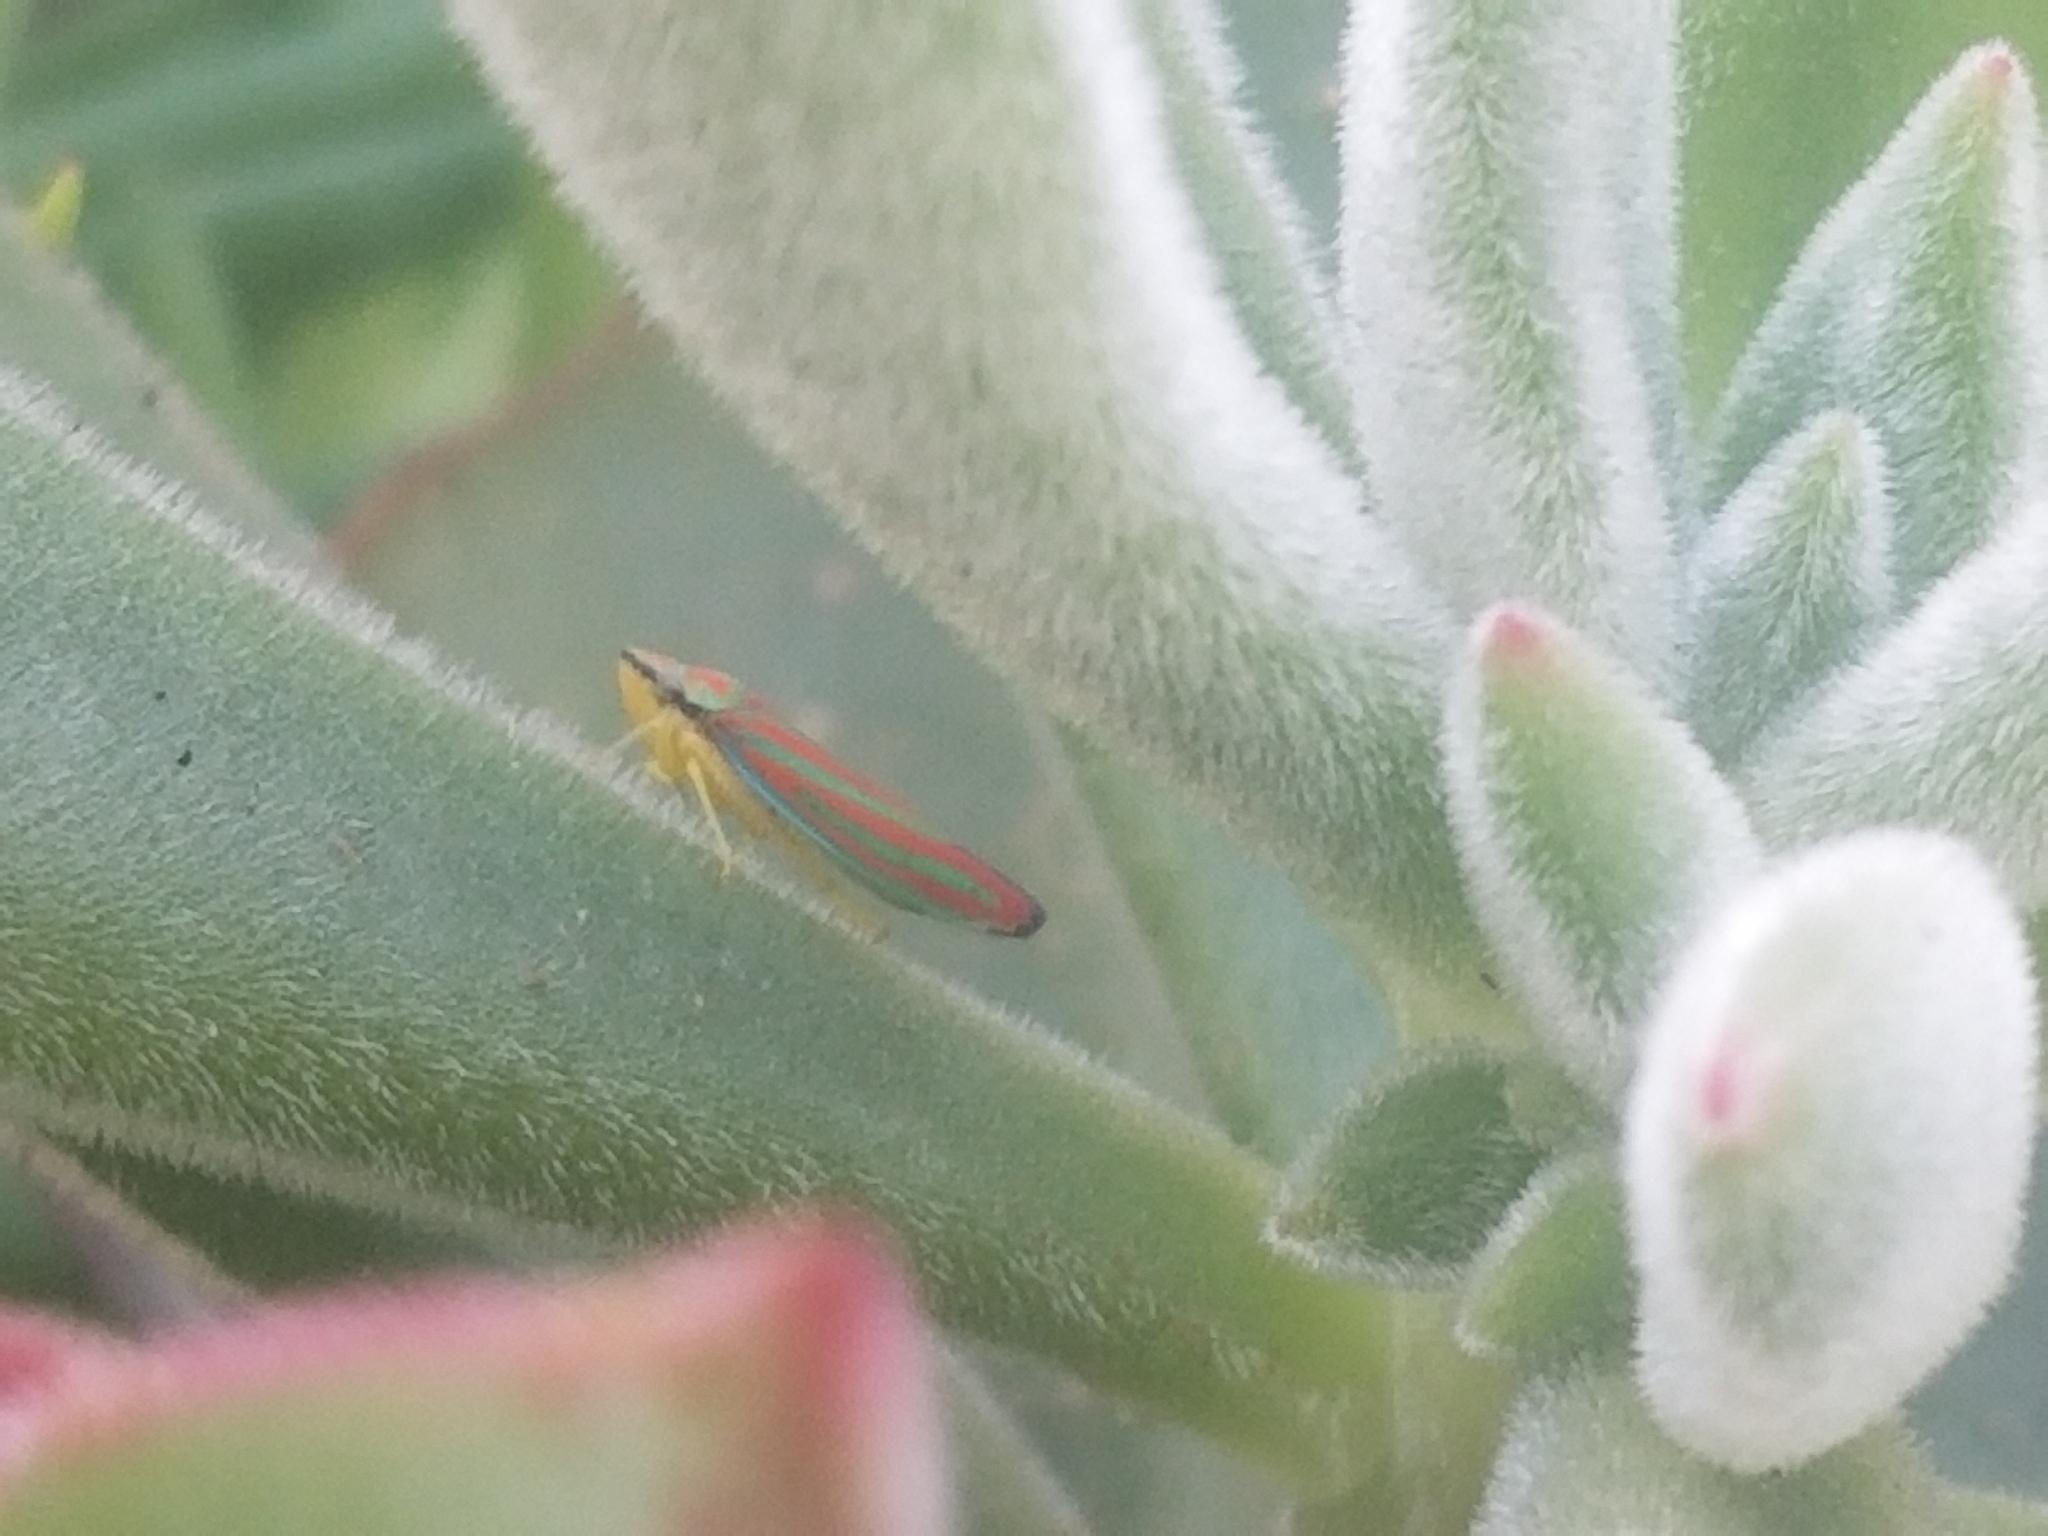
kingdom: Animalia
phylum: Arthropoda
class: Insecta
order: Hemiptera
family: Cicadellidae
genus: Graphocephala
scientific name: Graphocephala coccinea
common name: Candy-striped leafhopper
